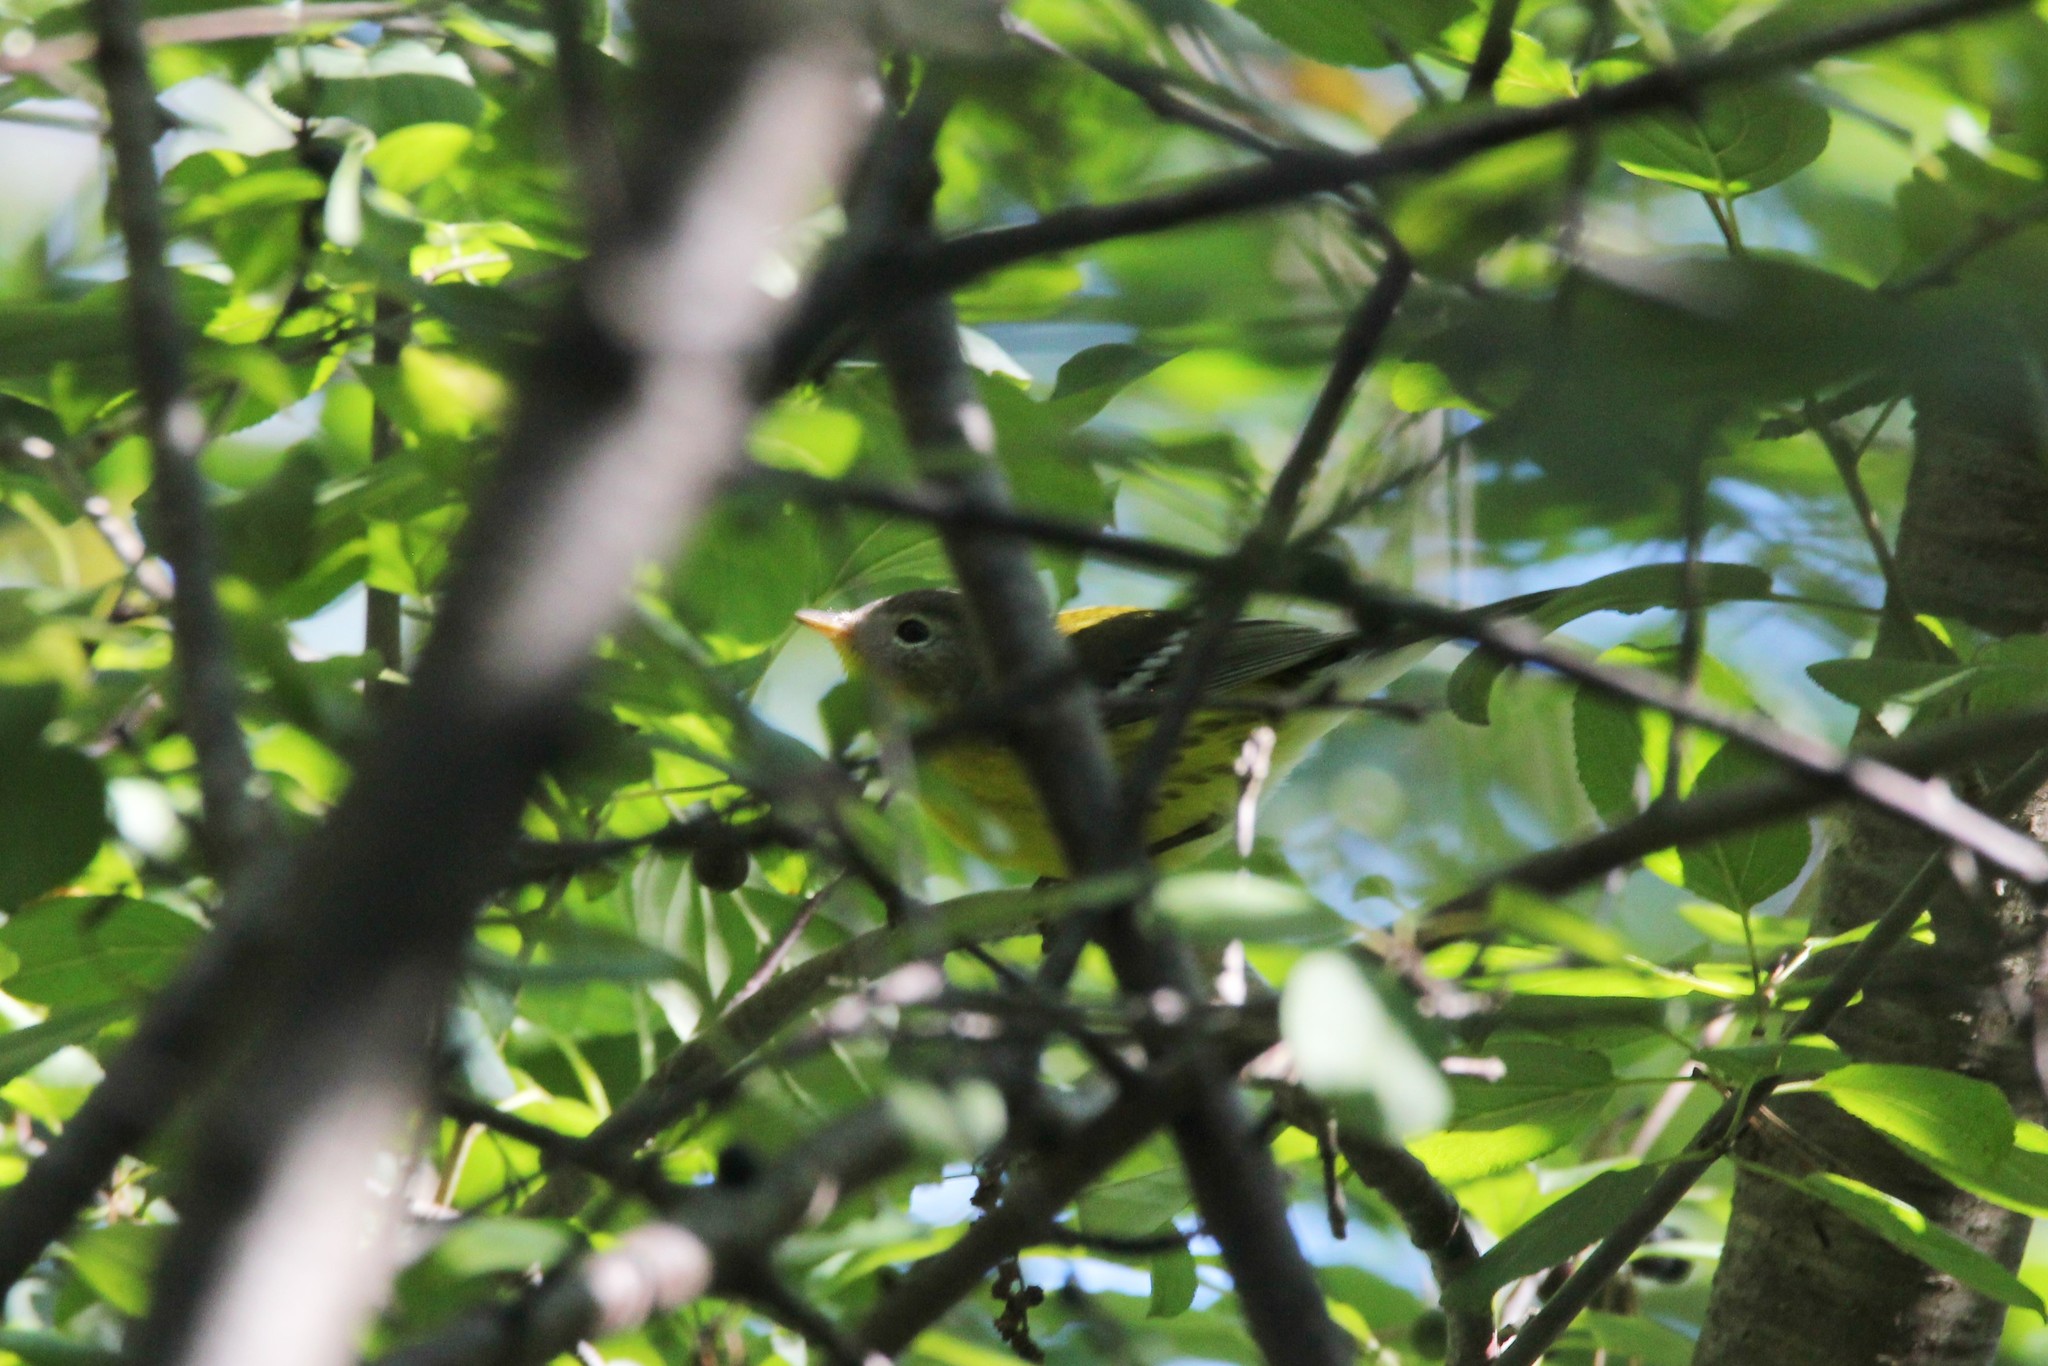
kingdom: Animalia
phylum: Chordata
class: Aves
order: Passeriformes
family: Parulidae
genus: Setophaga
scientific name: Setophaga magnolia
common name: Magnolia warbler
